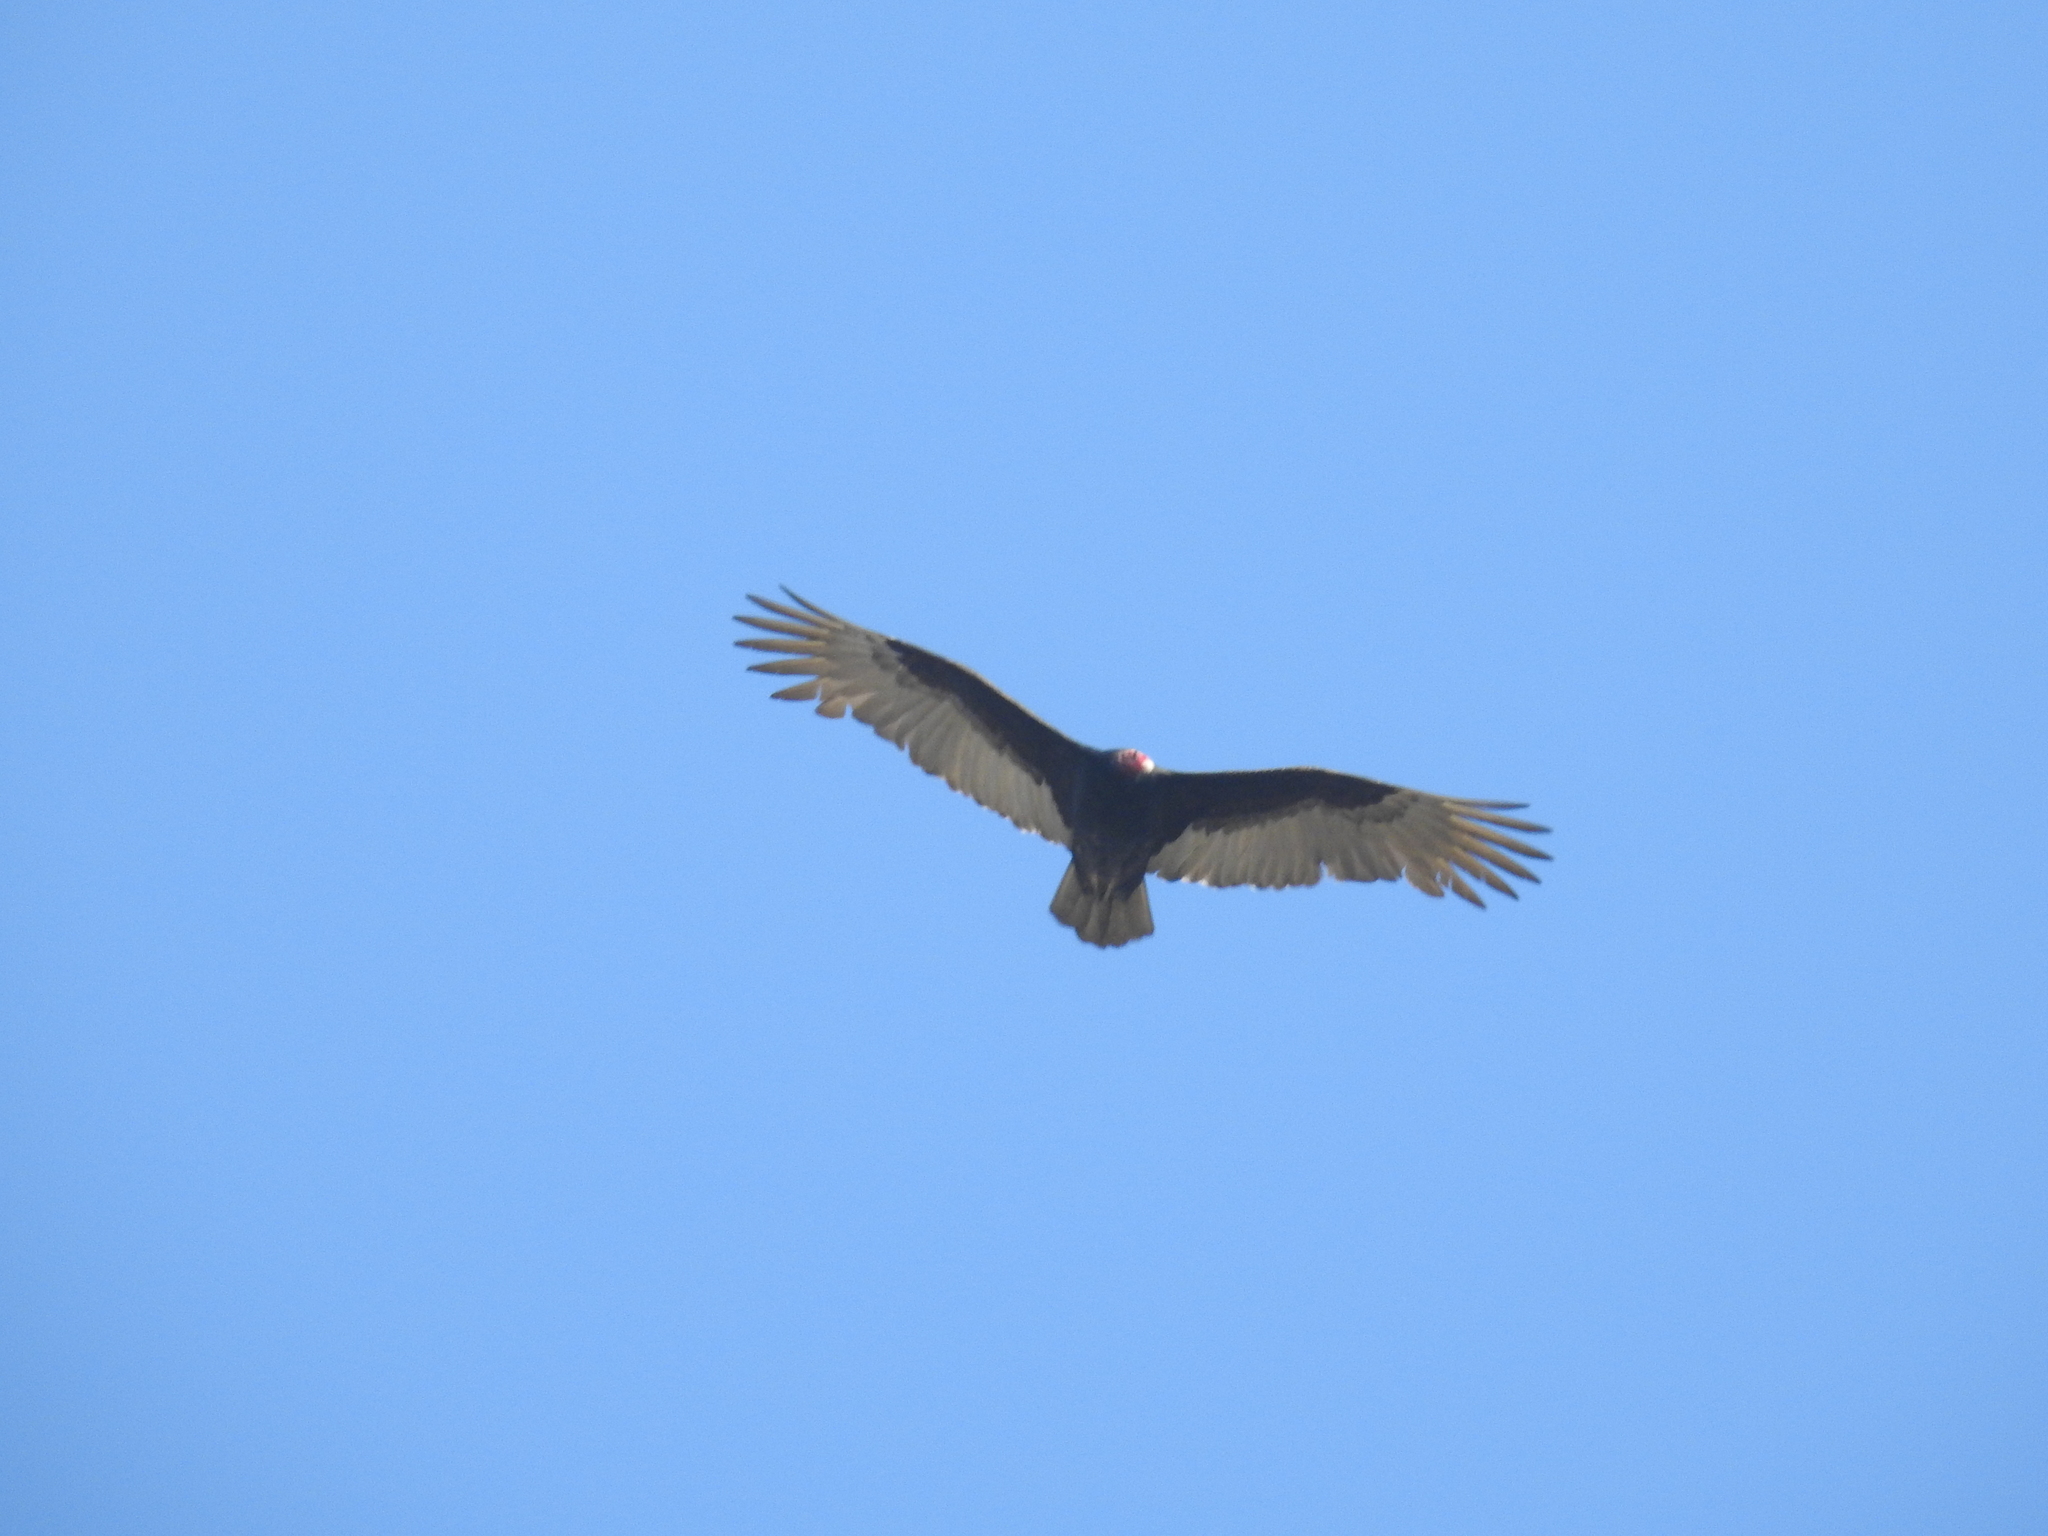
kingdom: Animalia
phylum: Chordata
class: Aves
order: Accipitriformes
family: Cathartidae
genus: Cathartes
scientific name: Cathartes aura
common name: Turkey vulture
